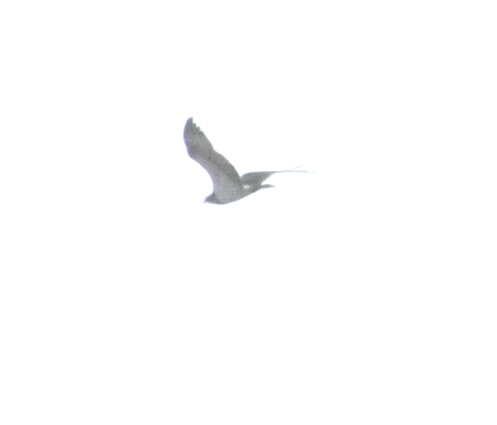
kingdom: Animalia
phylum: Chordata
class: Aves
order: Columbiformes
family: Columbidae
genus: Columba
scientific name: Columba palumbus
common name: Common wood pigeon
